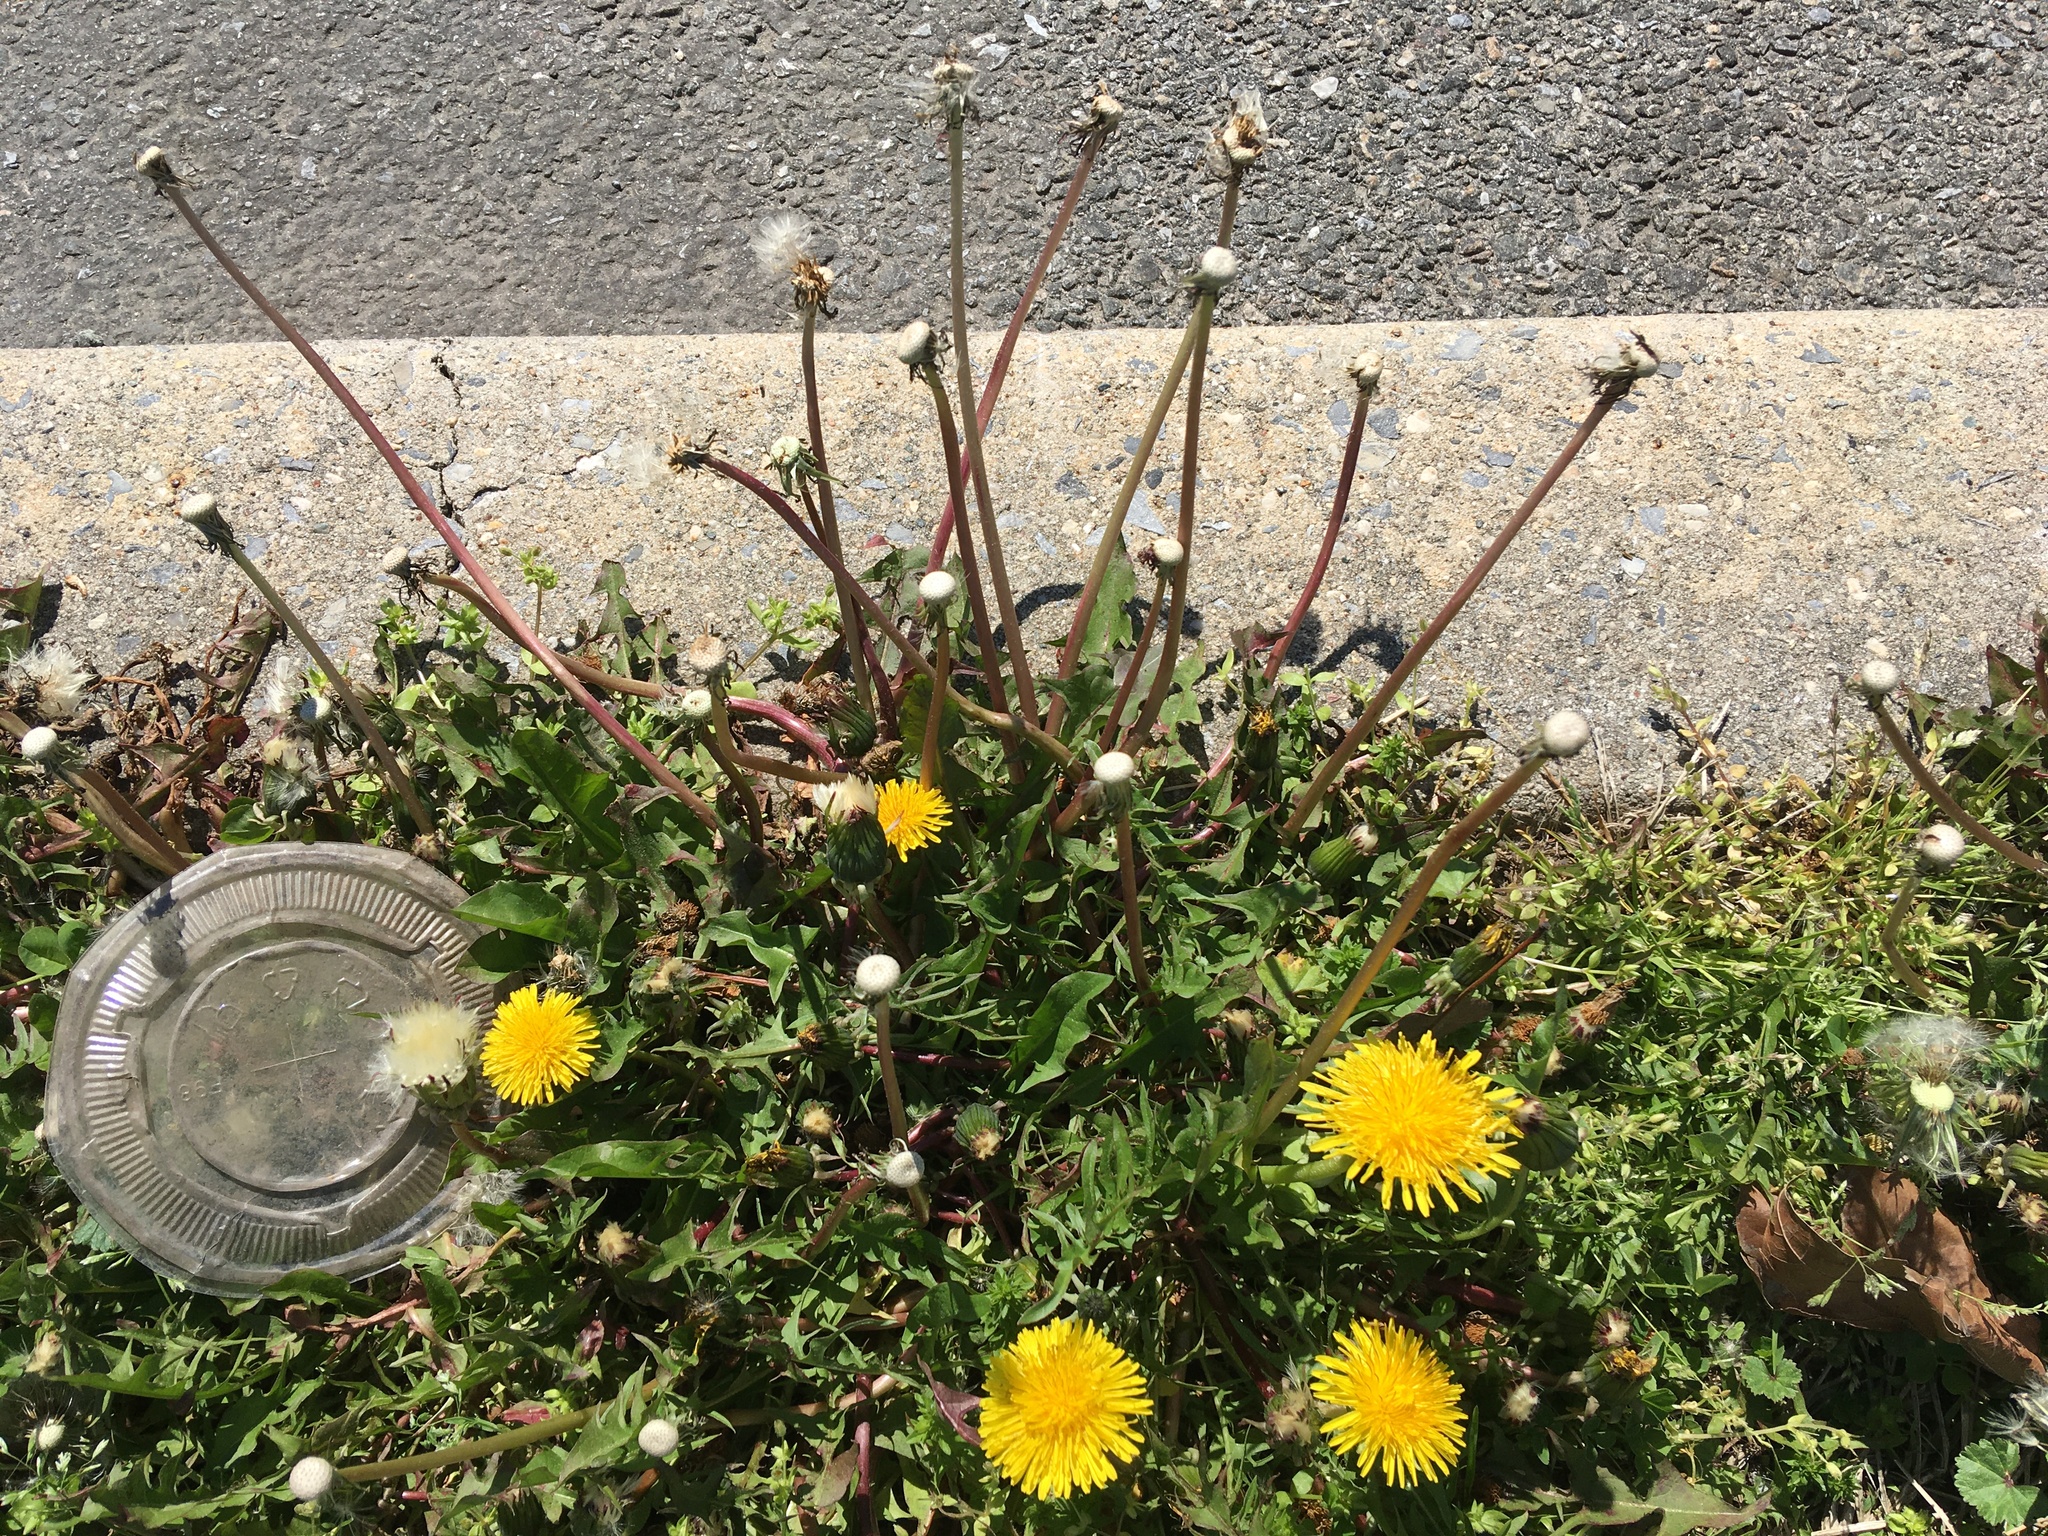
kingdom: Plantae
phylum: Tracheophyta
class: Magnoliopsida
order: Asterales
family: Asteraceae
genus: Taraxacum
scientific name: Taraxacum officinale
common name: Common dandelion
